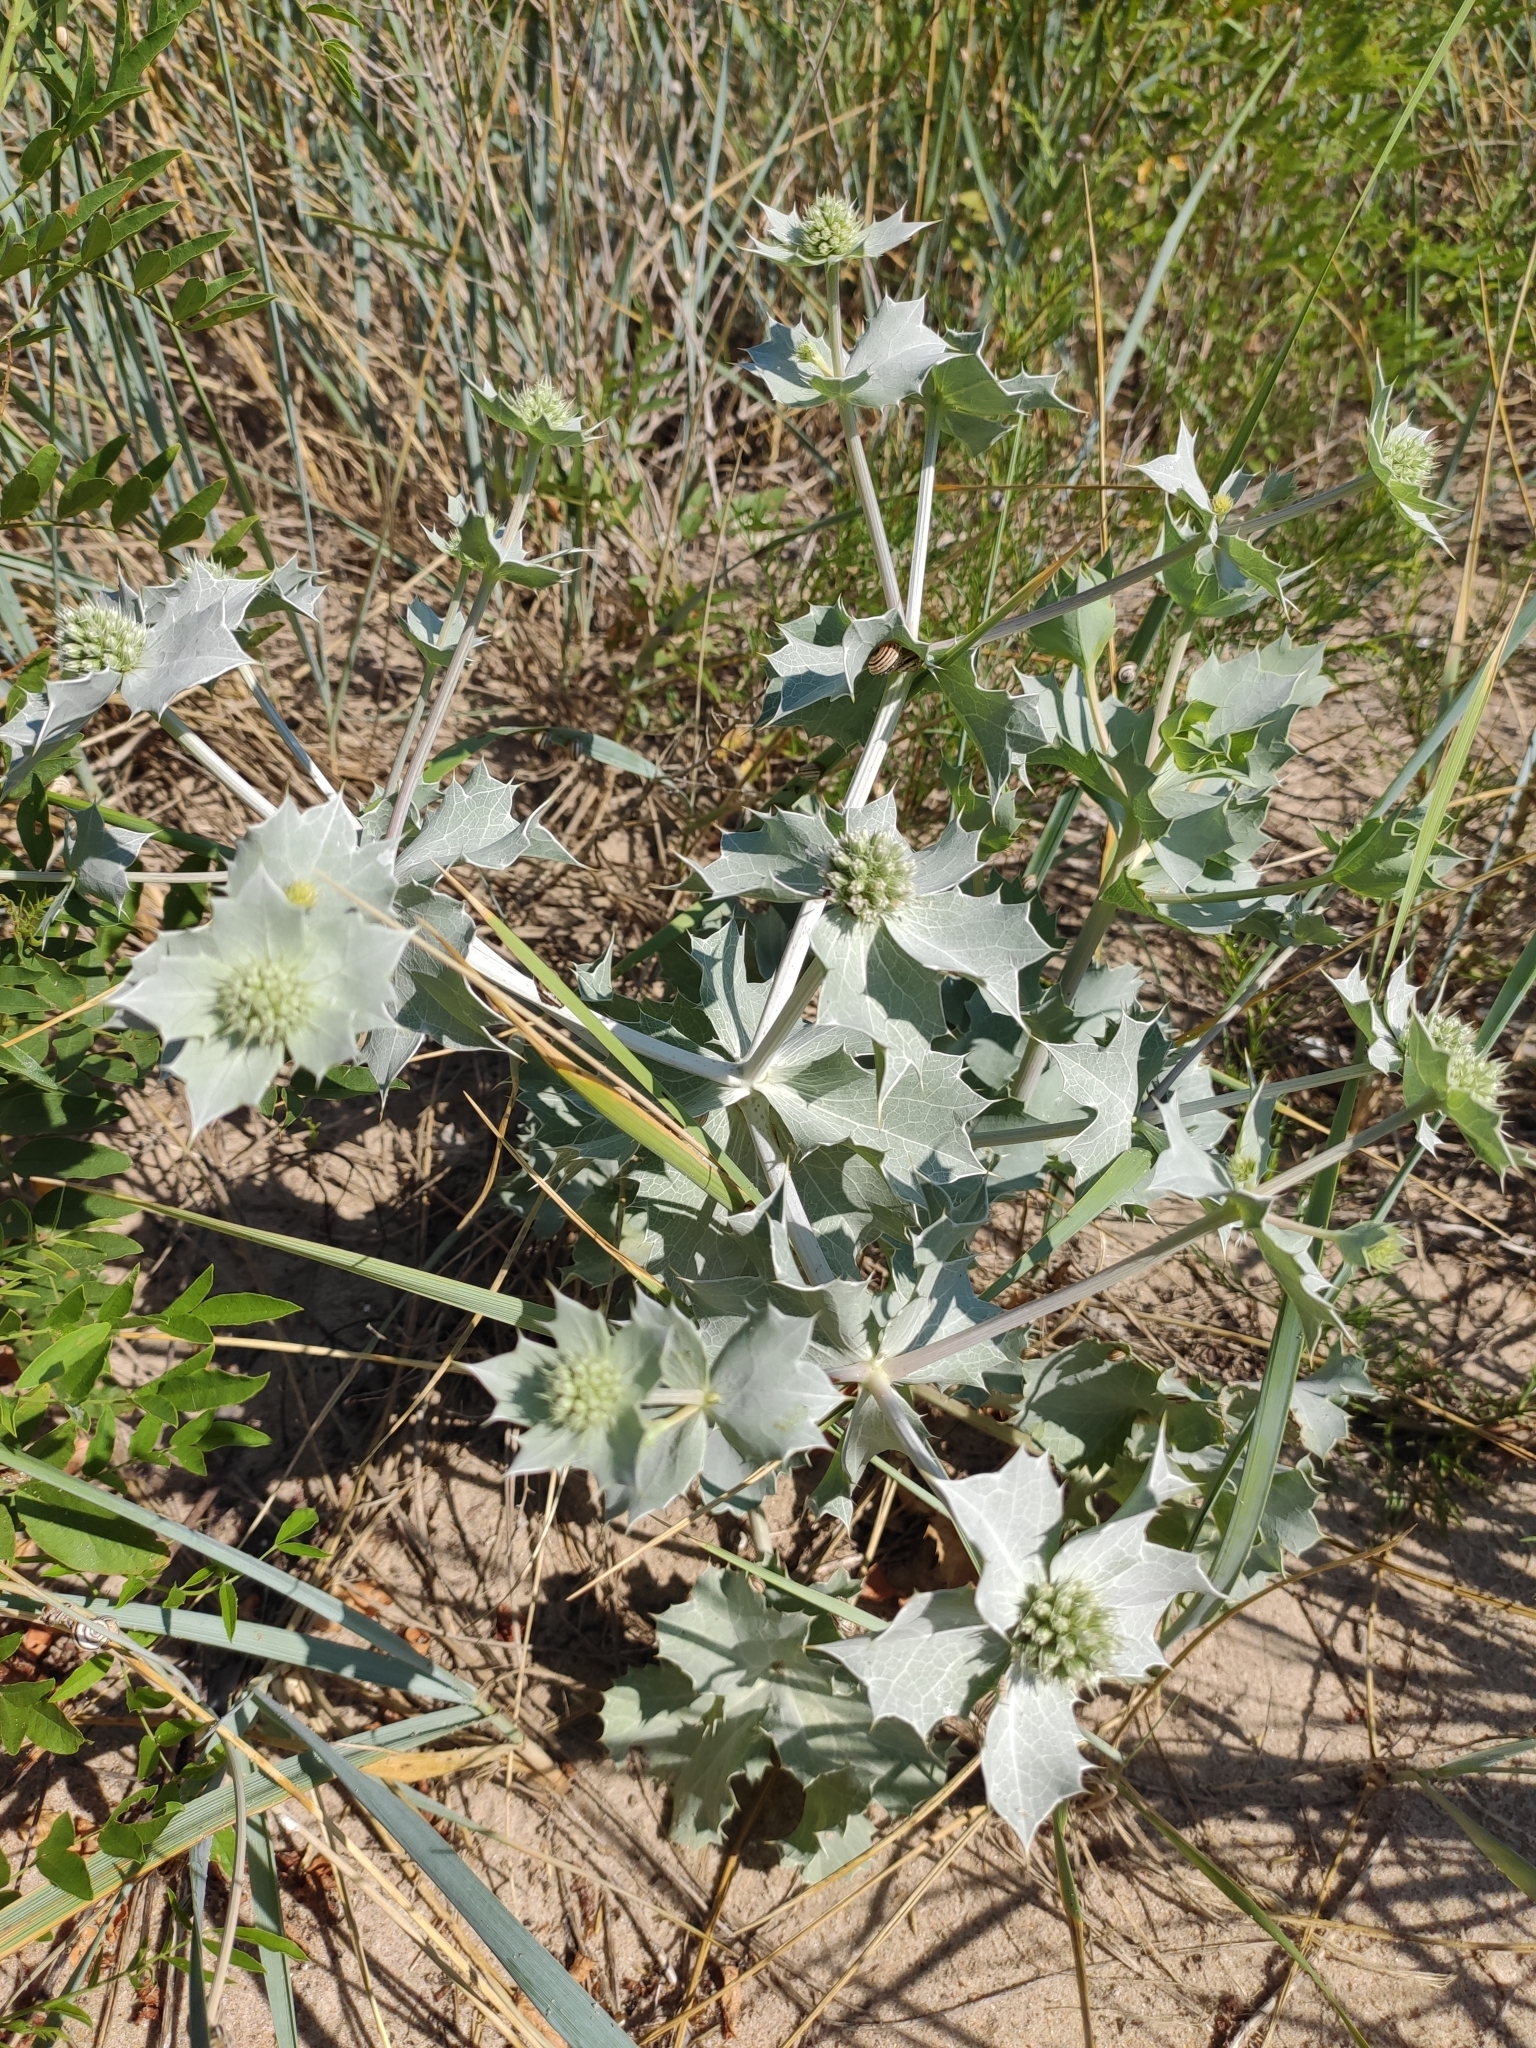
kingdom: Plantae
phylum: Tracheophyta
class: Magnoliopsida
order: Apiales
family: Apiaceae
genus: Eryngium
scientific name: Eryngium maritimum
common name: Sea-holly
